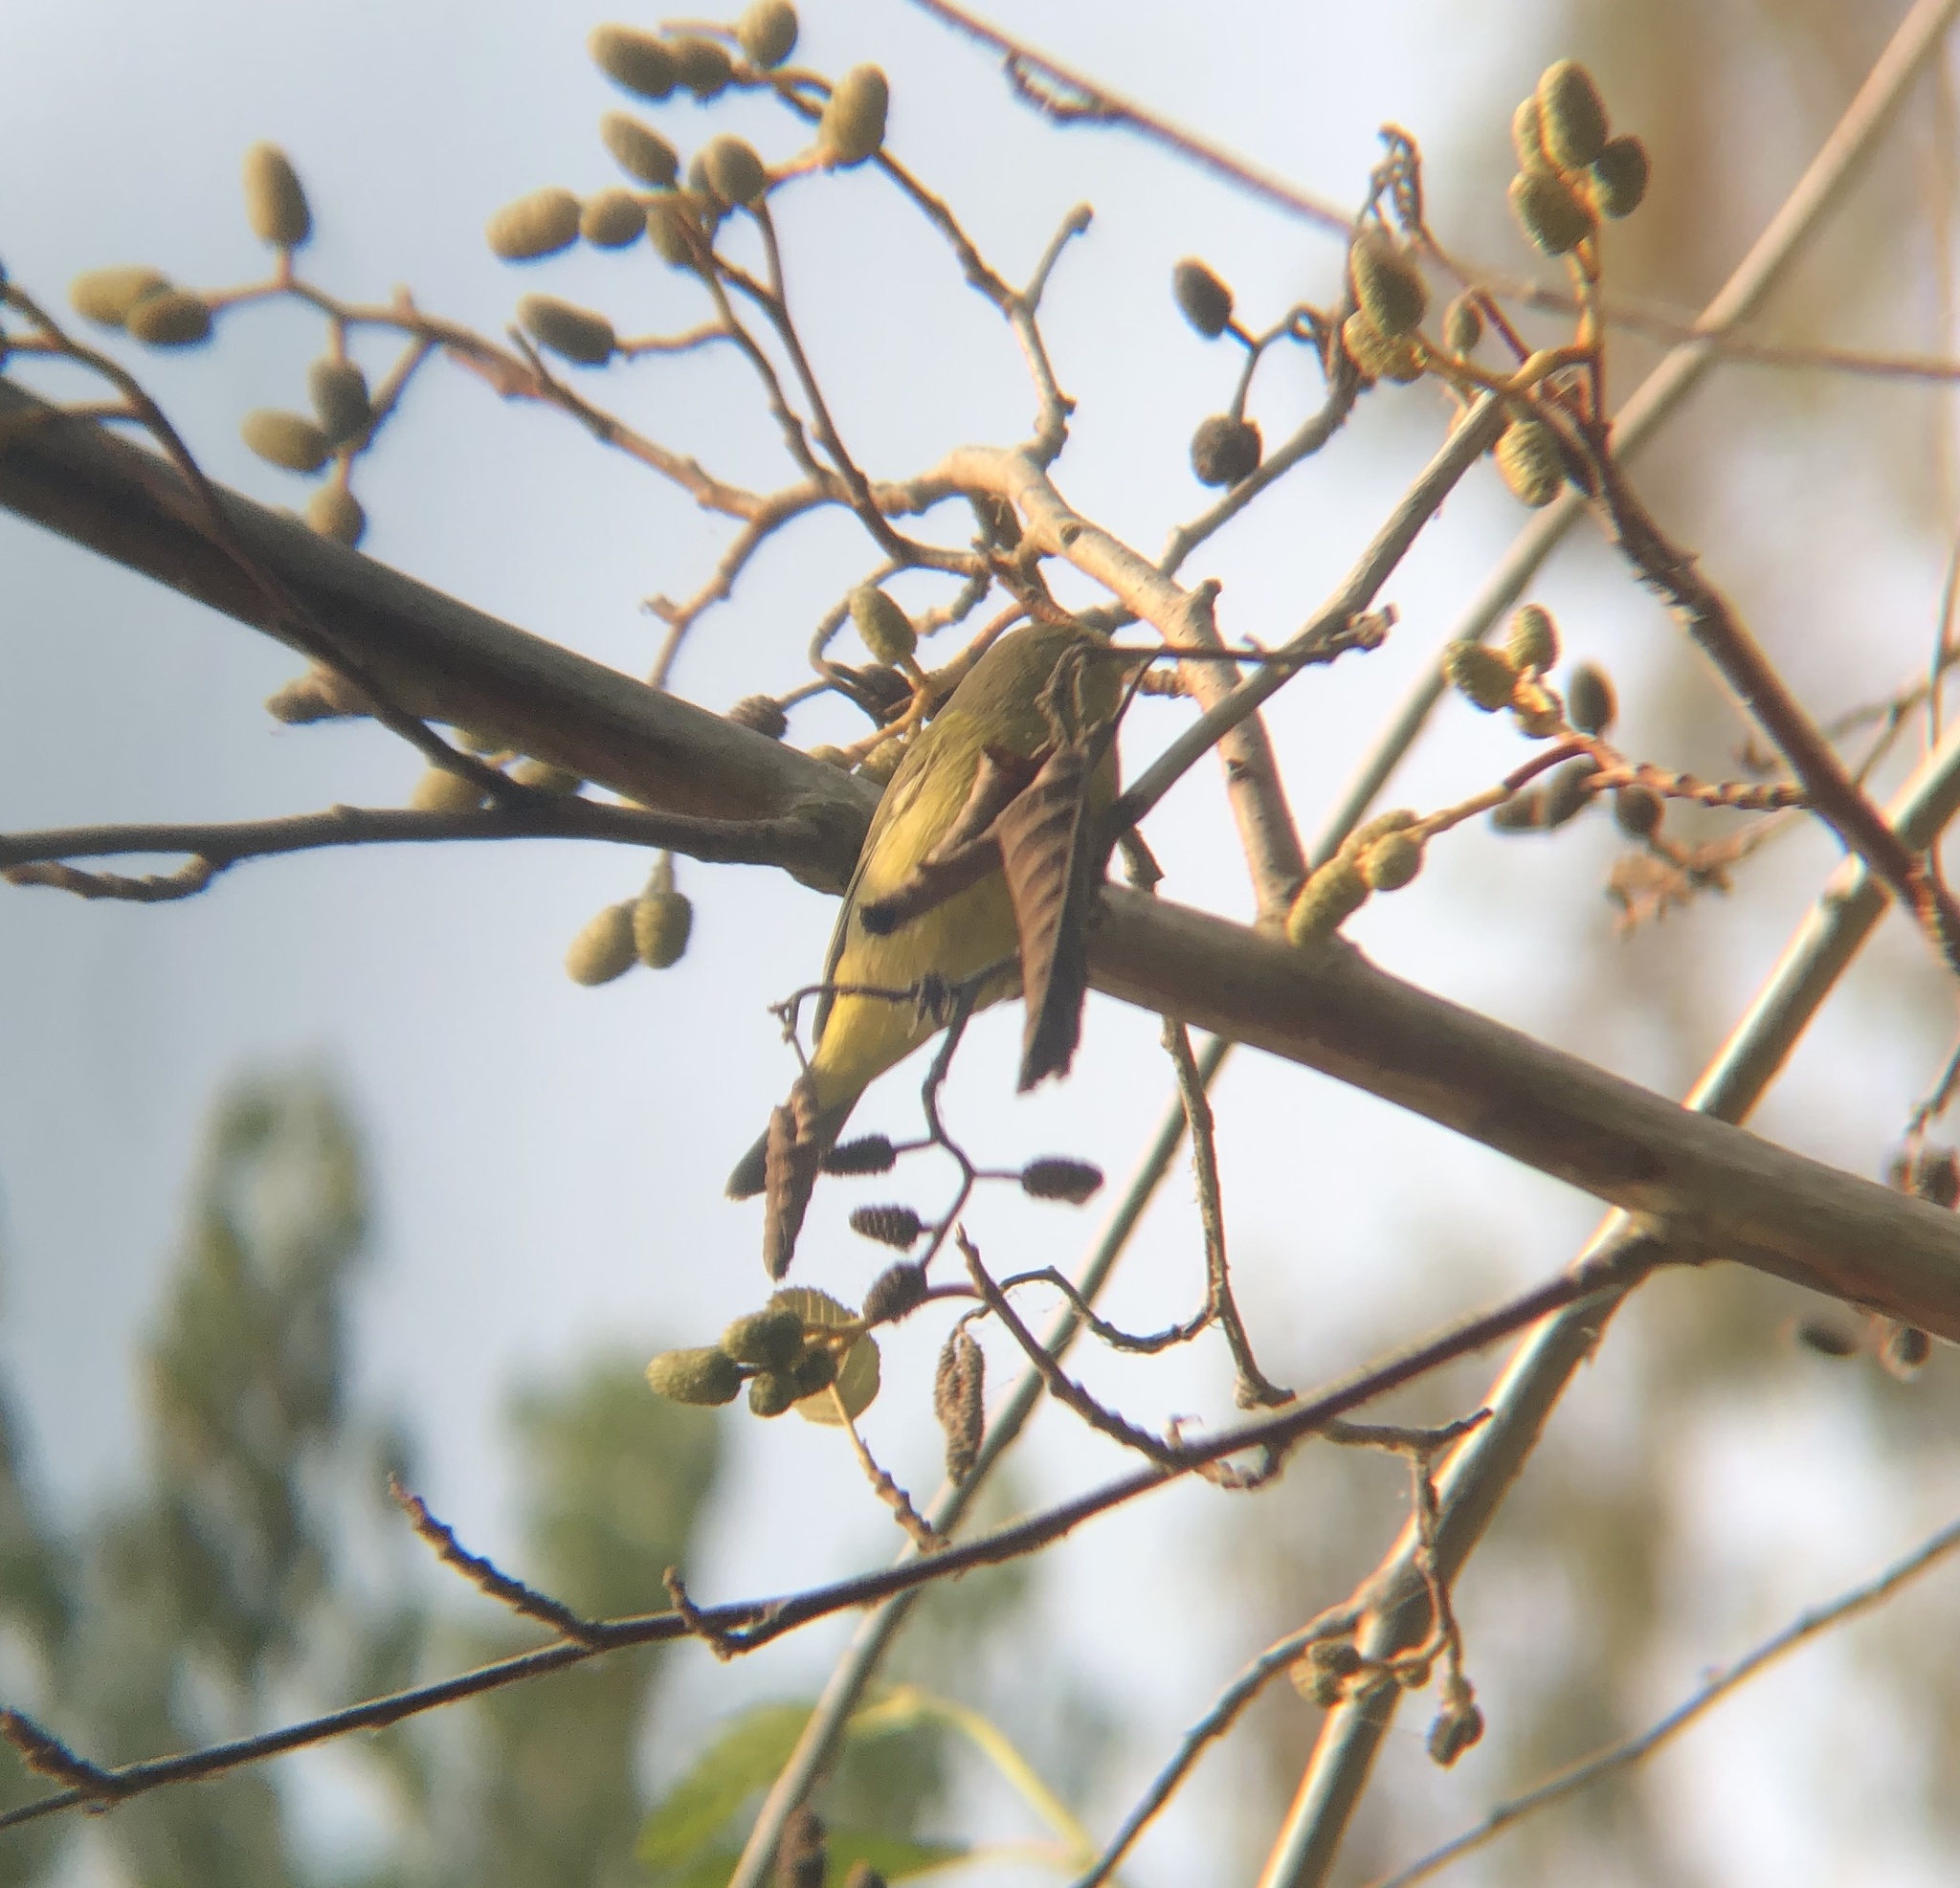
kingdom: Animalia
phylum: Chordata
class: Aves
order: Passeriformes
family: Parulidae
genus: Leiothlypis
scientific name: Leiothlypis celata
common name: Orange-crowned warbler
